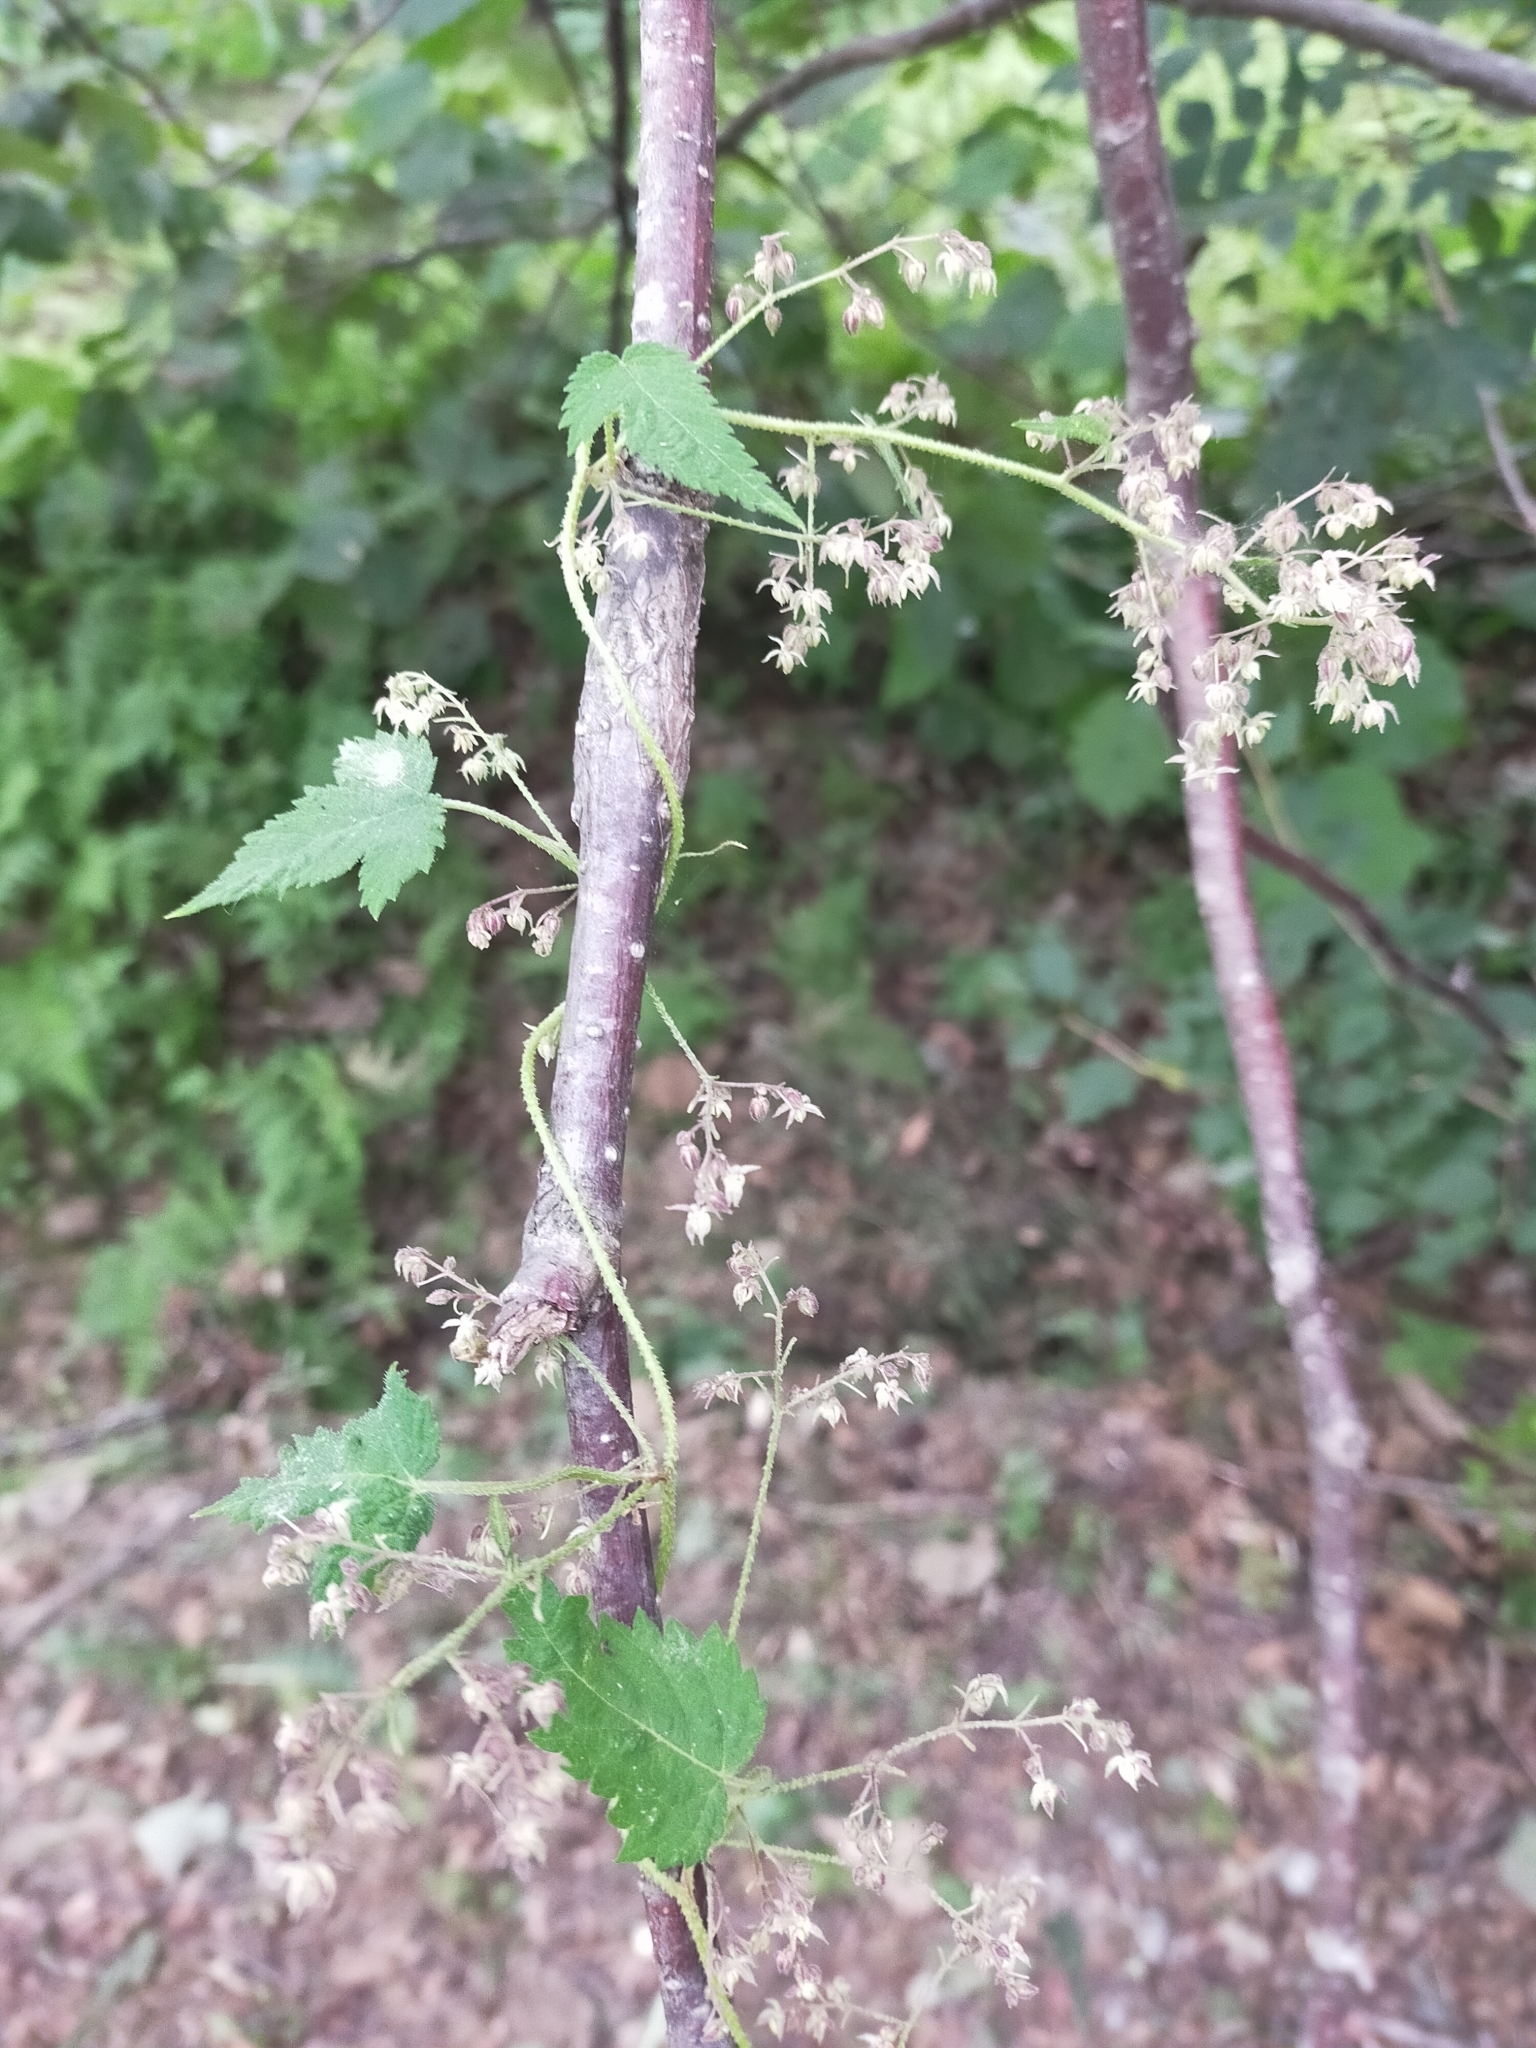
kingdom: Plantae
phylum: Tracheophyta
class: Magnoliopsida
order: Rosales
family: Cannabaceae
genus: Humulus
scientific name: Humulus scandens
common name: Japanese hop
